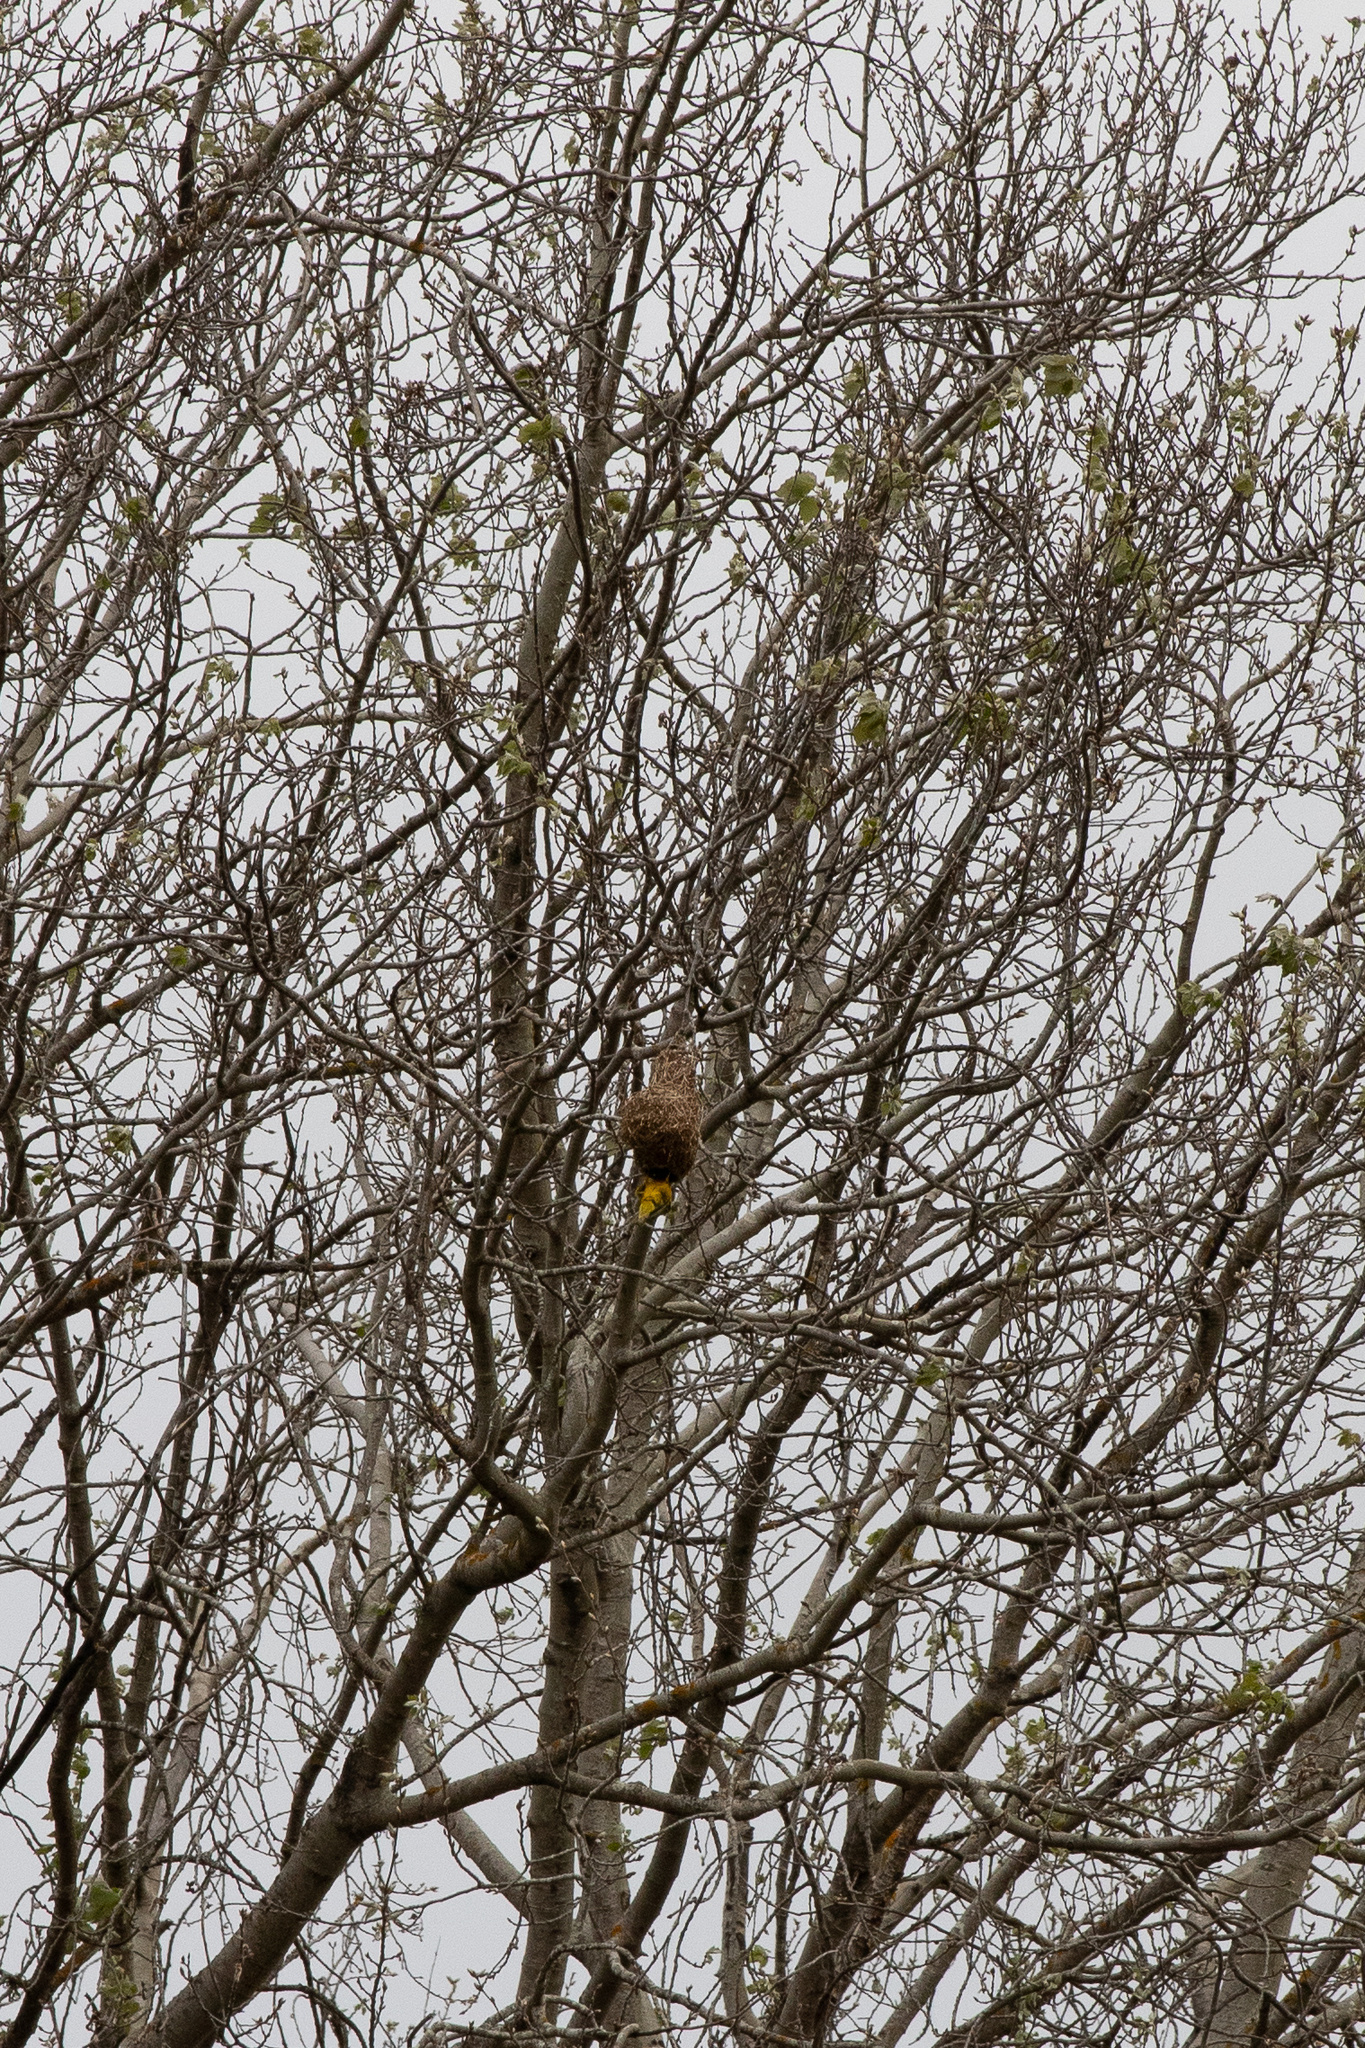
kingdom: Animalia
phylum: Chordata
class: Aves
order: Passeriformes
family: Ploceidae
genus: Ploceus
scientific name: Ploceus velatus
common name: Southern masked weaver
